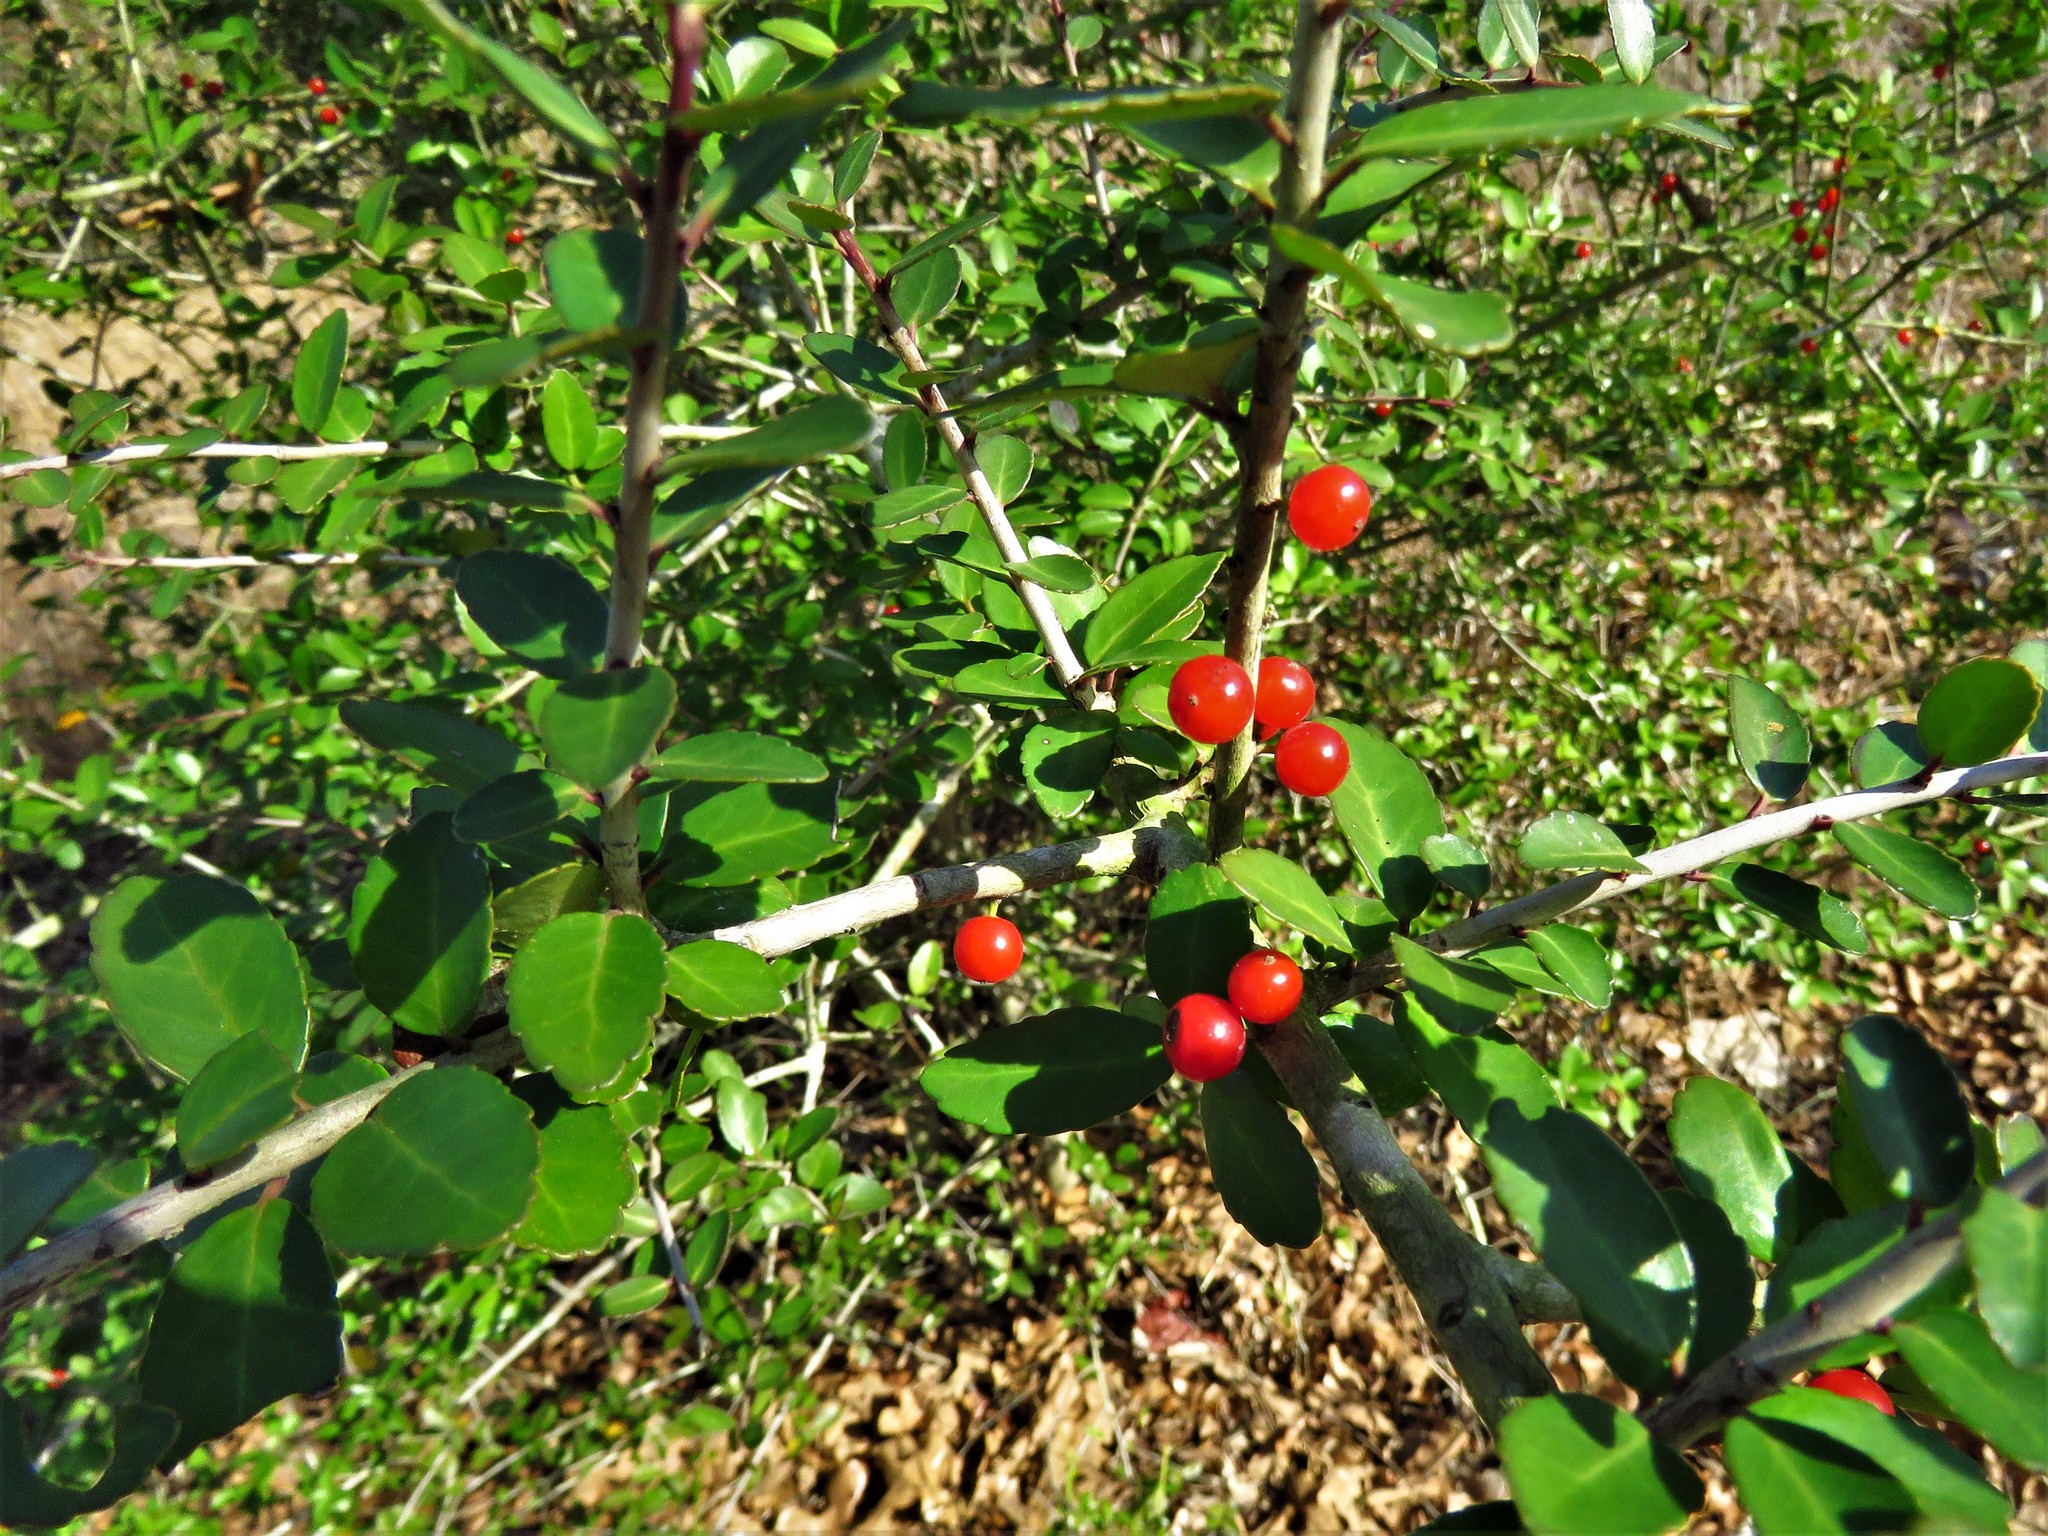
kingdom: Plantae
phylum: Tracheophyta
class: Magnoliopsida
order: Aquifoliales
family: Aquifoliaceae
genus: Ilex
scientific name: Ilex vomitoria
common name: Yaupon holly
